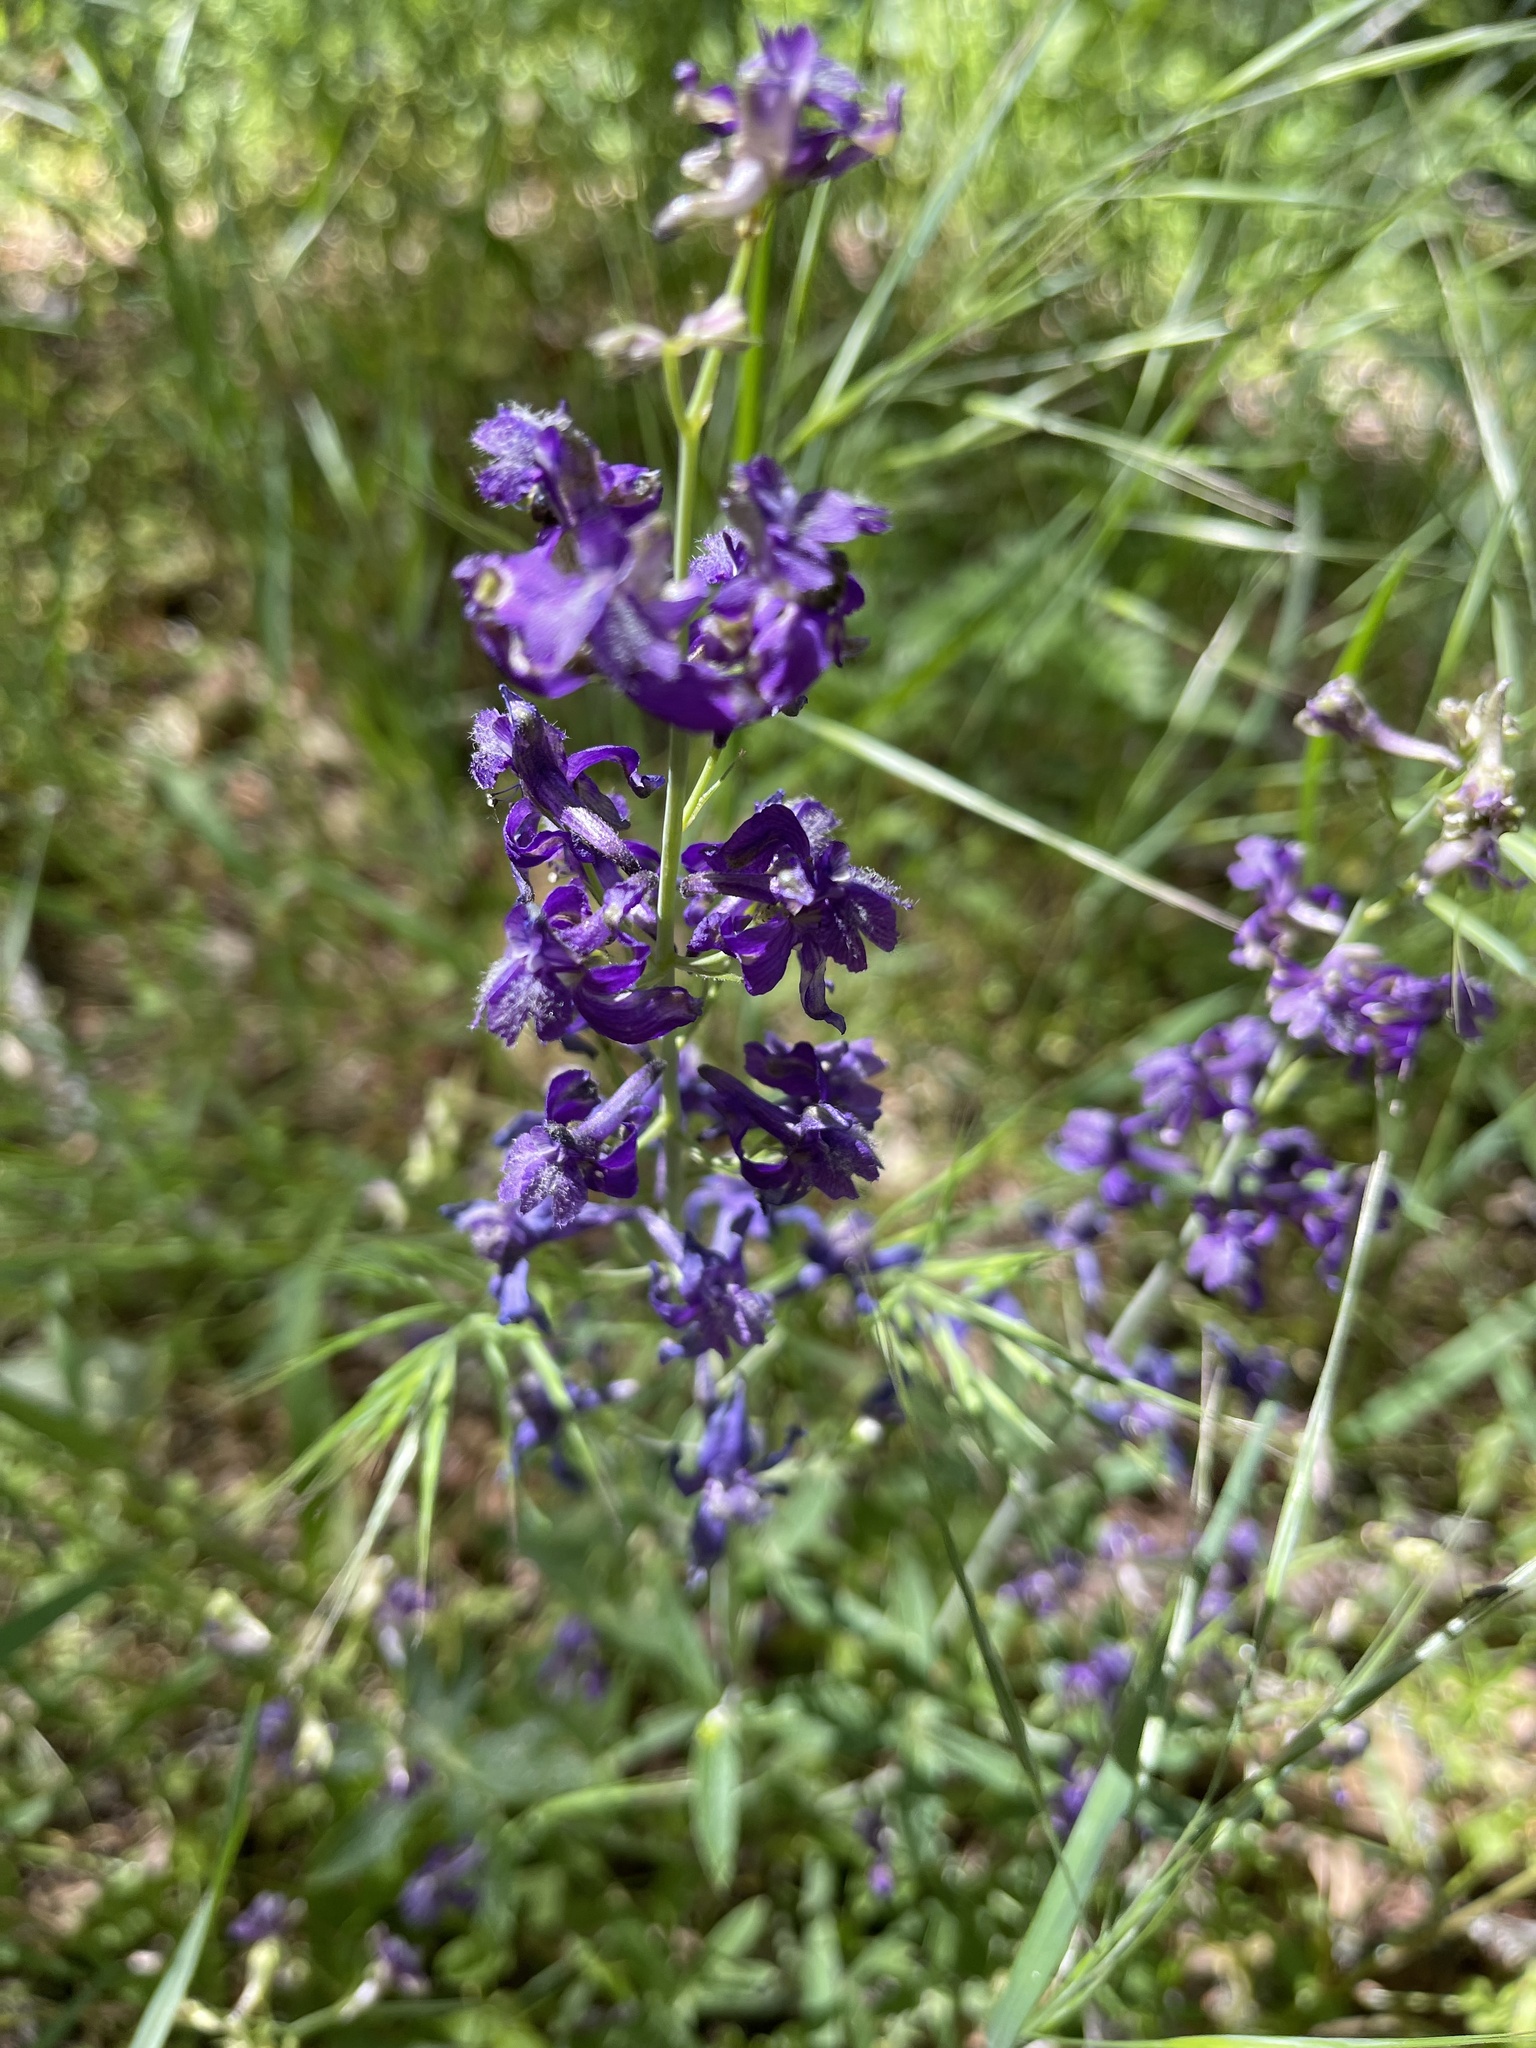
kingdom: Plantae
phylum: Tracheophyta
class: Magnoliopsida
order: Ranunculales
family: Ranunculaceae
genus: Delphinium
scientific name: Delphinium hesperium
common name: Western larkspur
